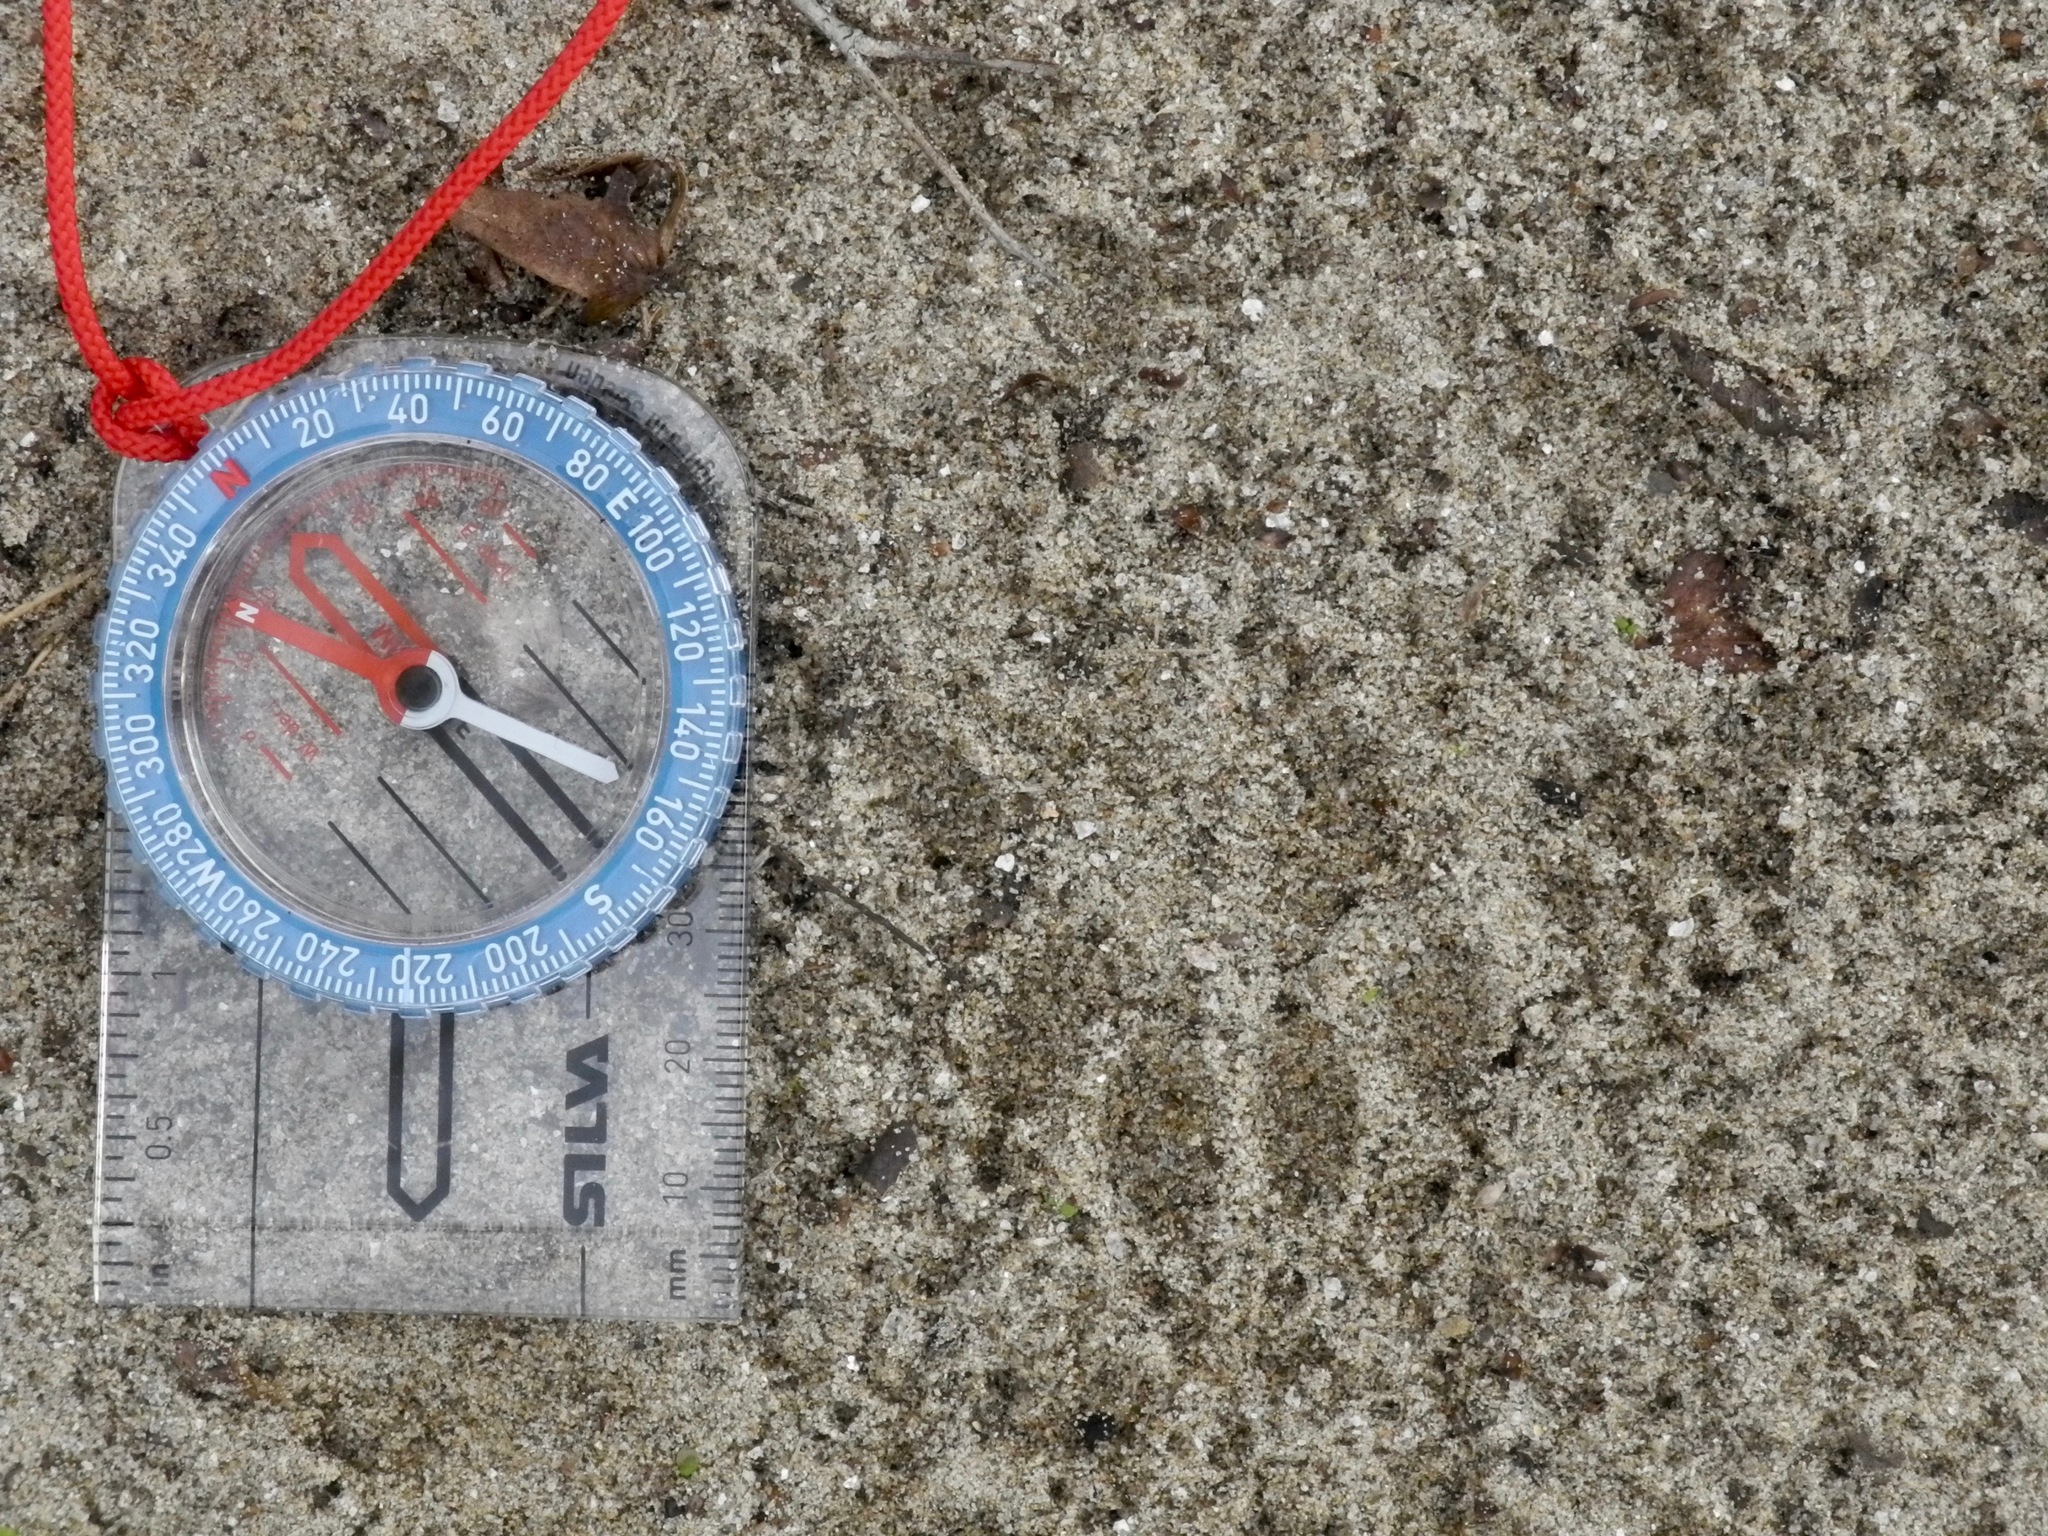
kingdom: Animalia
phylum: Chordata
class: Mammalia
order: Carnivora
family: Mustelidae
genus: Lontra
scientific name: Lontra canadensis
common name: North american river otter
